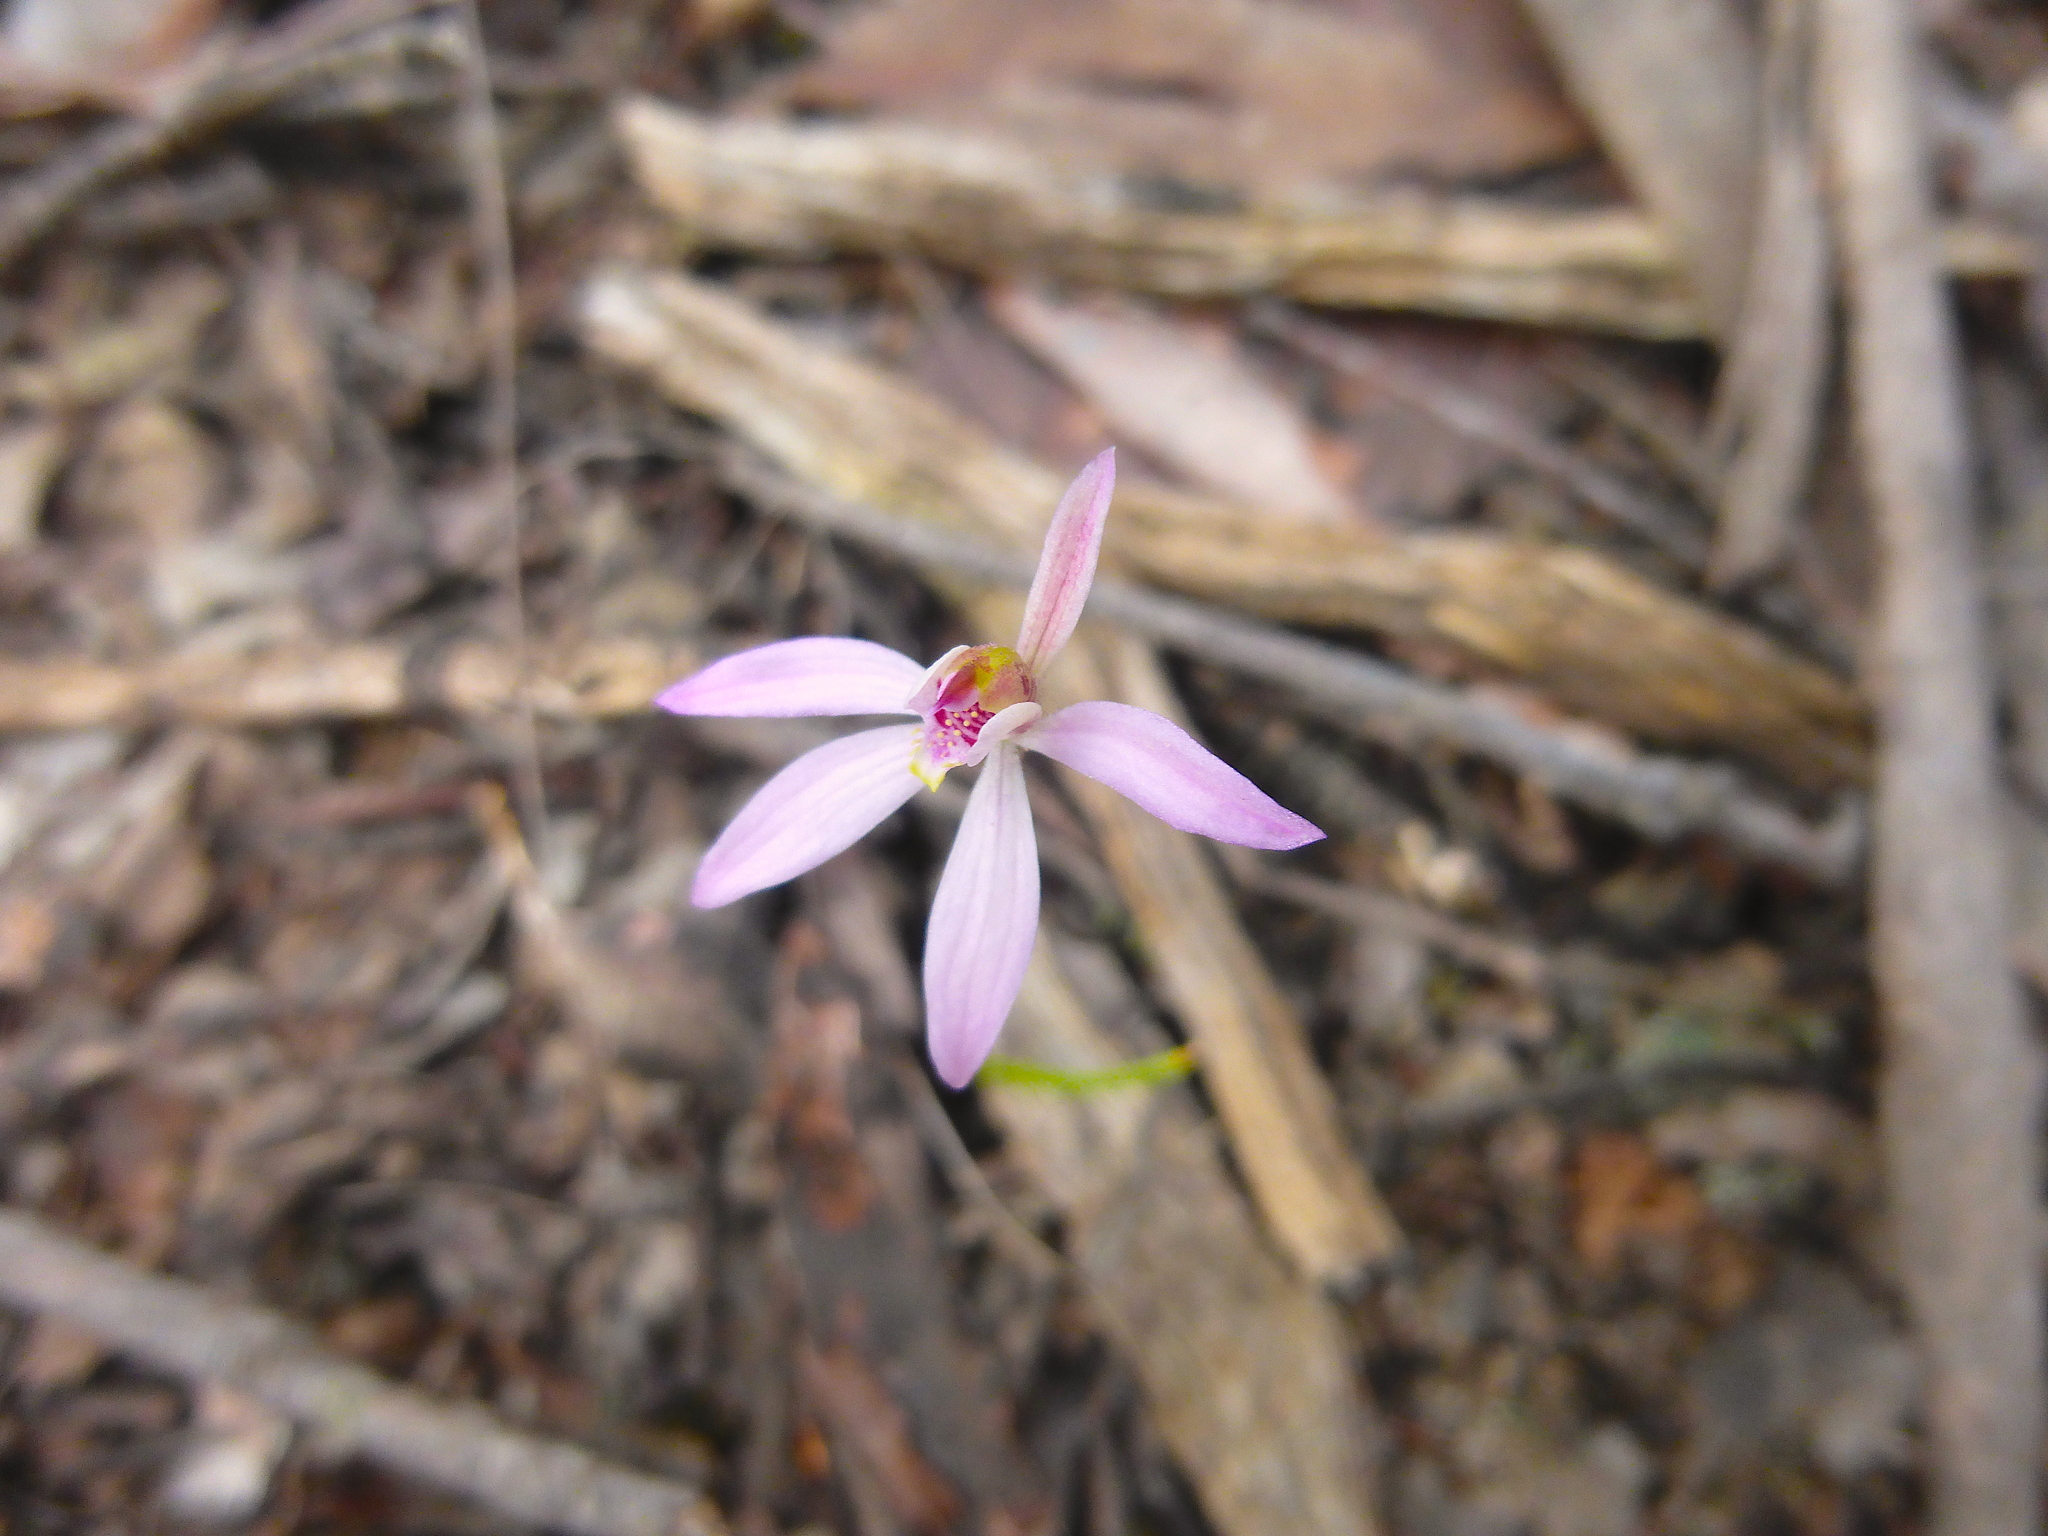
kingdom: Plantae
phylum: Tracheophyta
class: Liliopsida
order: Asparagales
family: Orchidaceae
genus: Caladenia
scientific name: Caladenia fuscata
